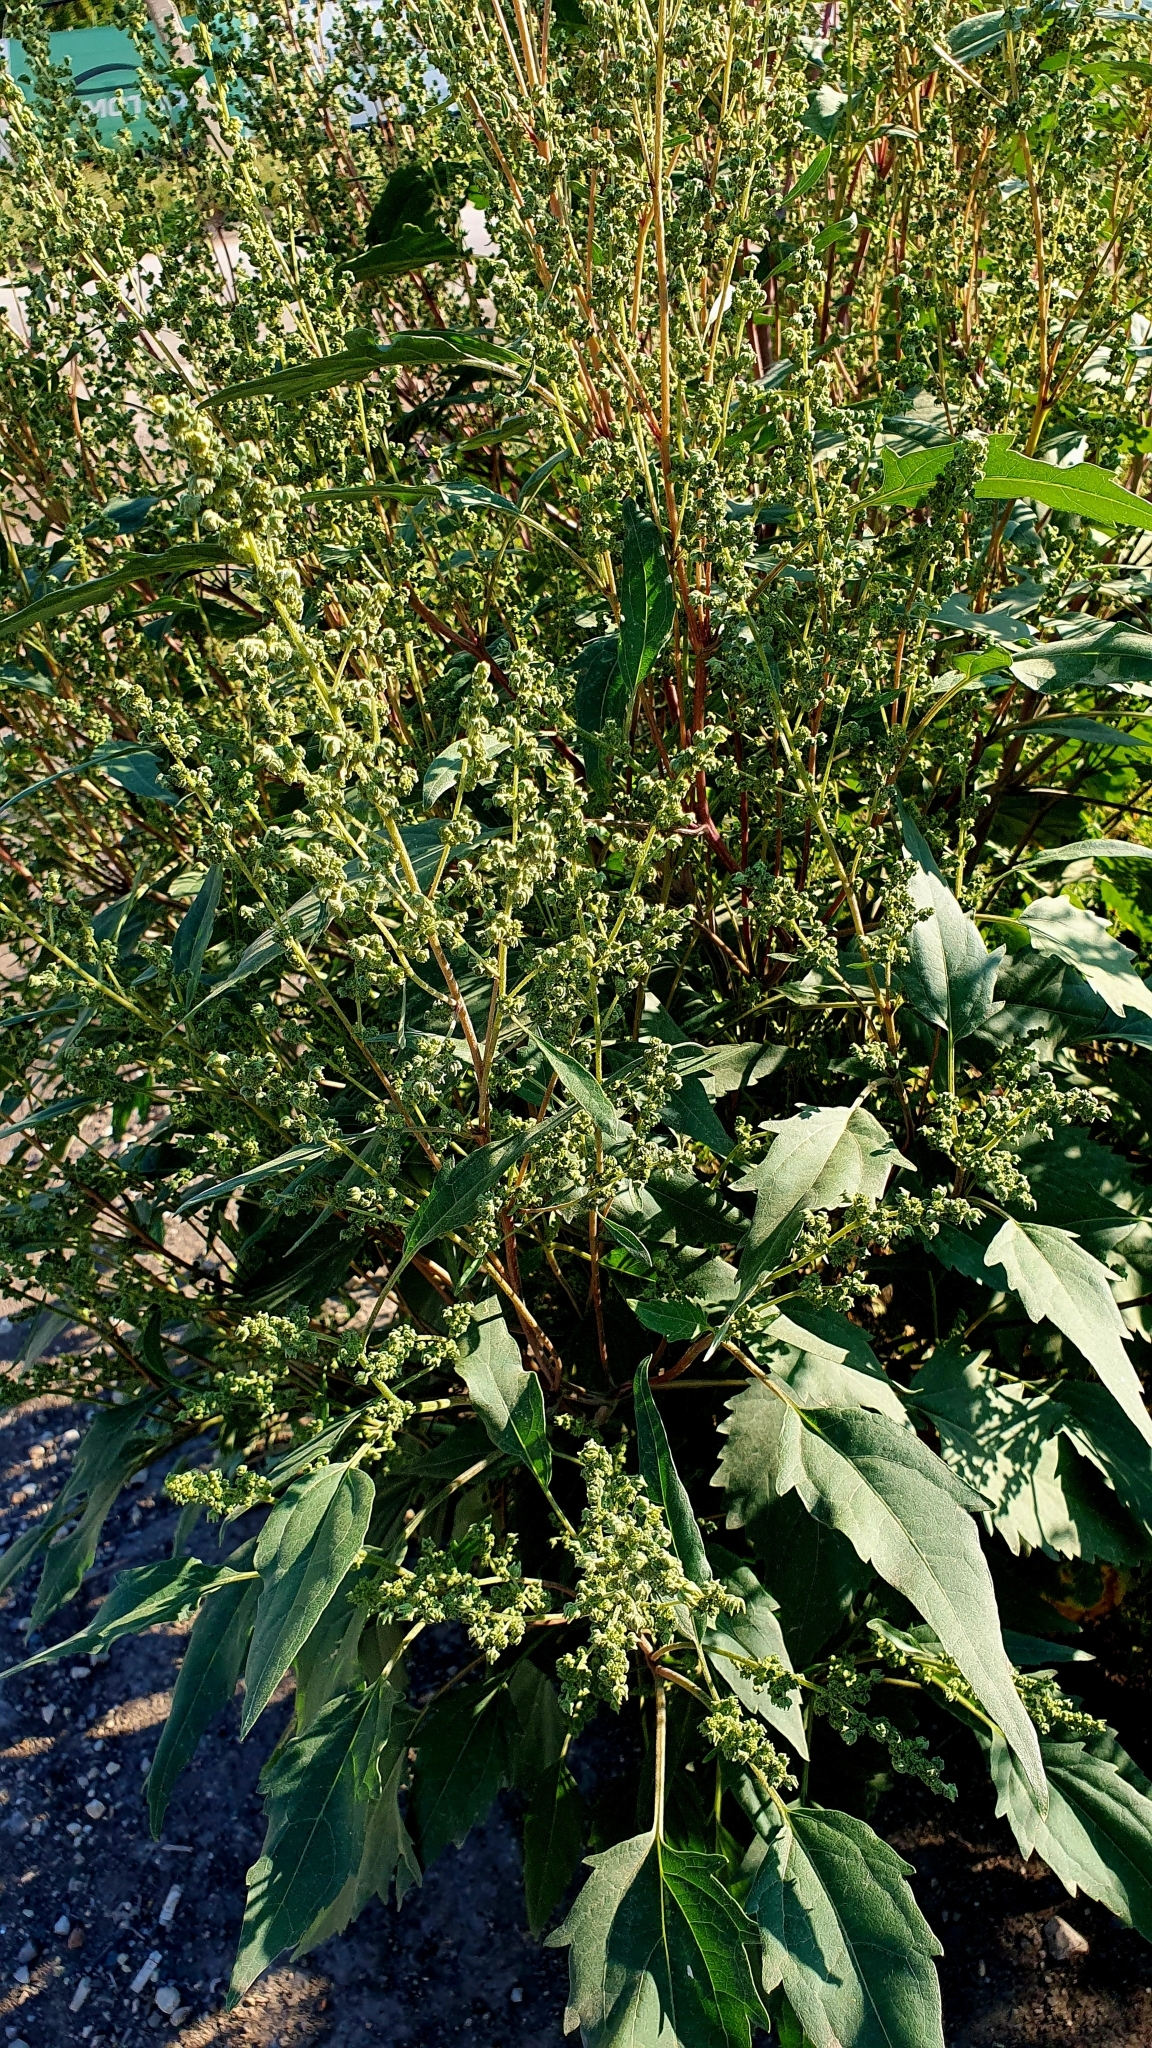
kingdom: Plantae
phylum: Tracheophyta
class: Magnoliopsida
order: Asterales
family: Asteraceae
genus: Cyclachaena
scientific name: Cyclachaena xanthiifolia
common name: Giant sumpweed
